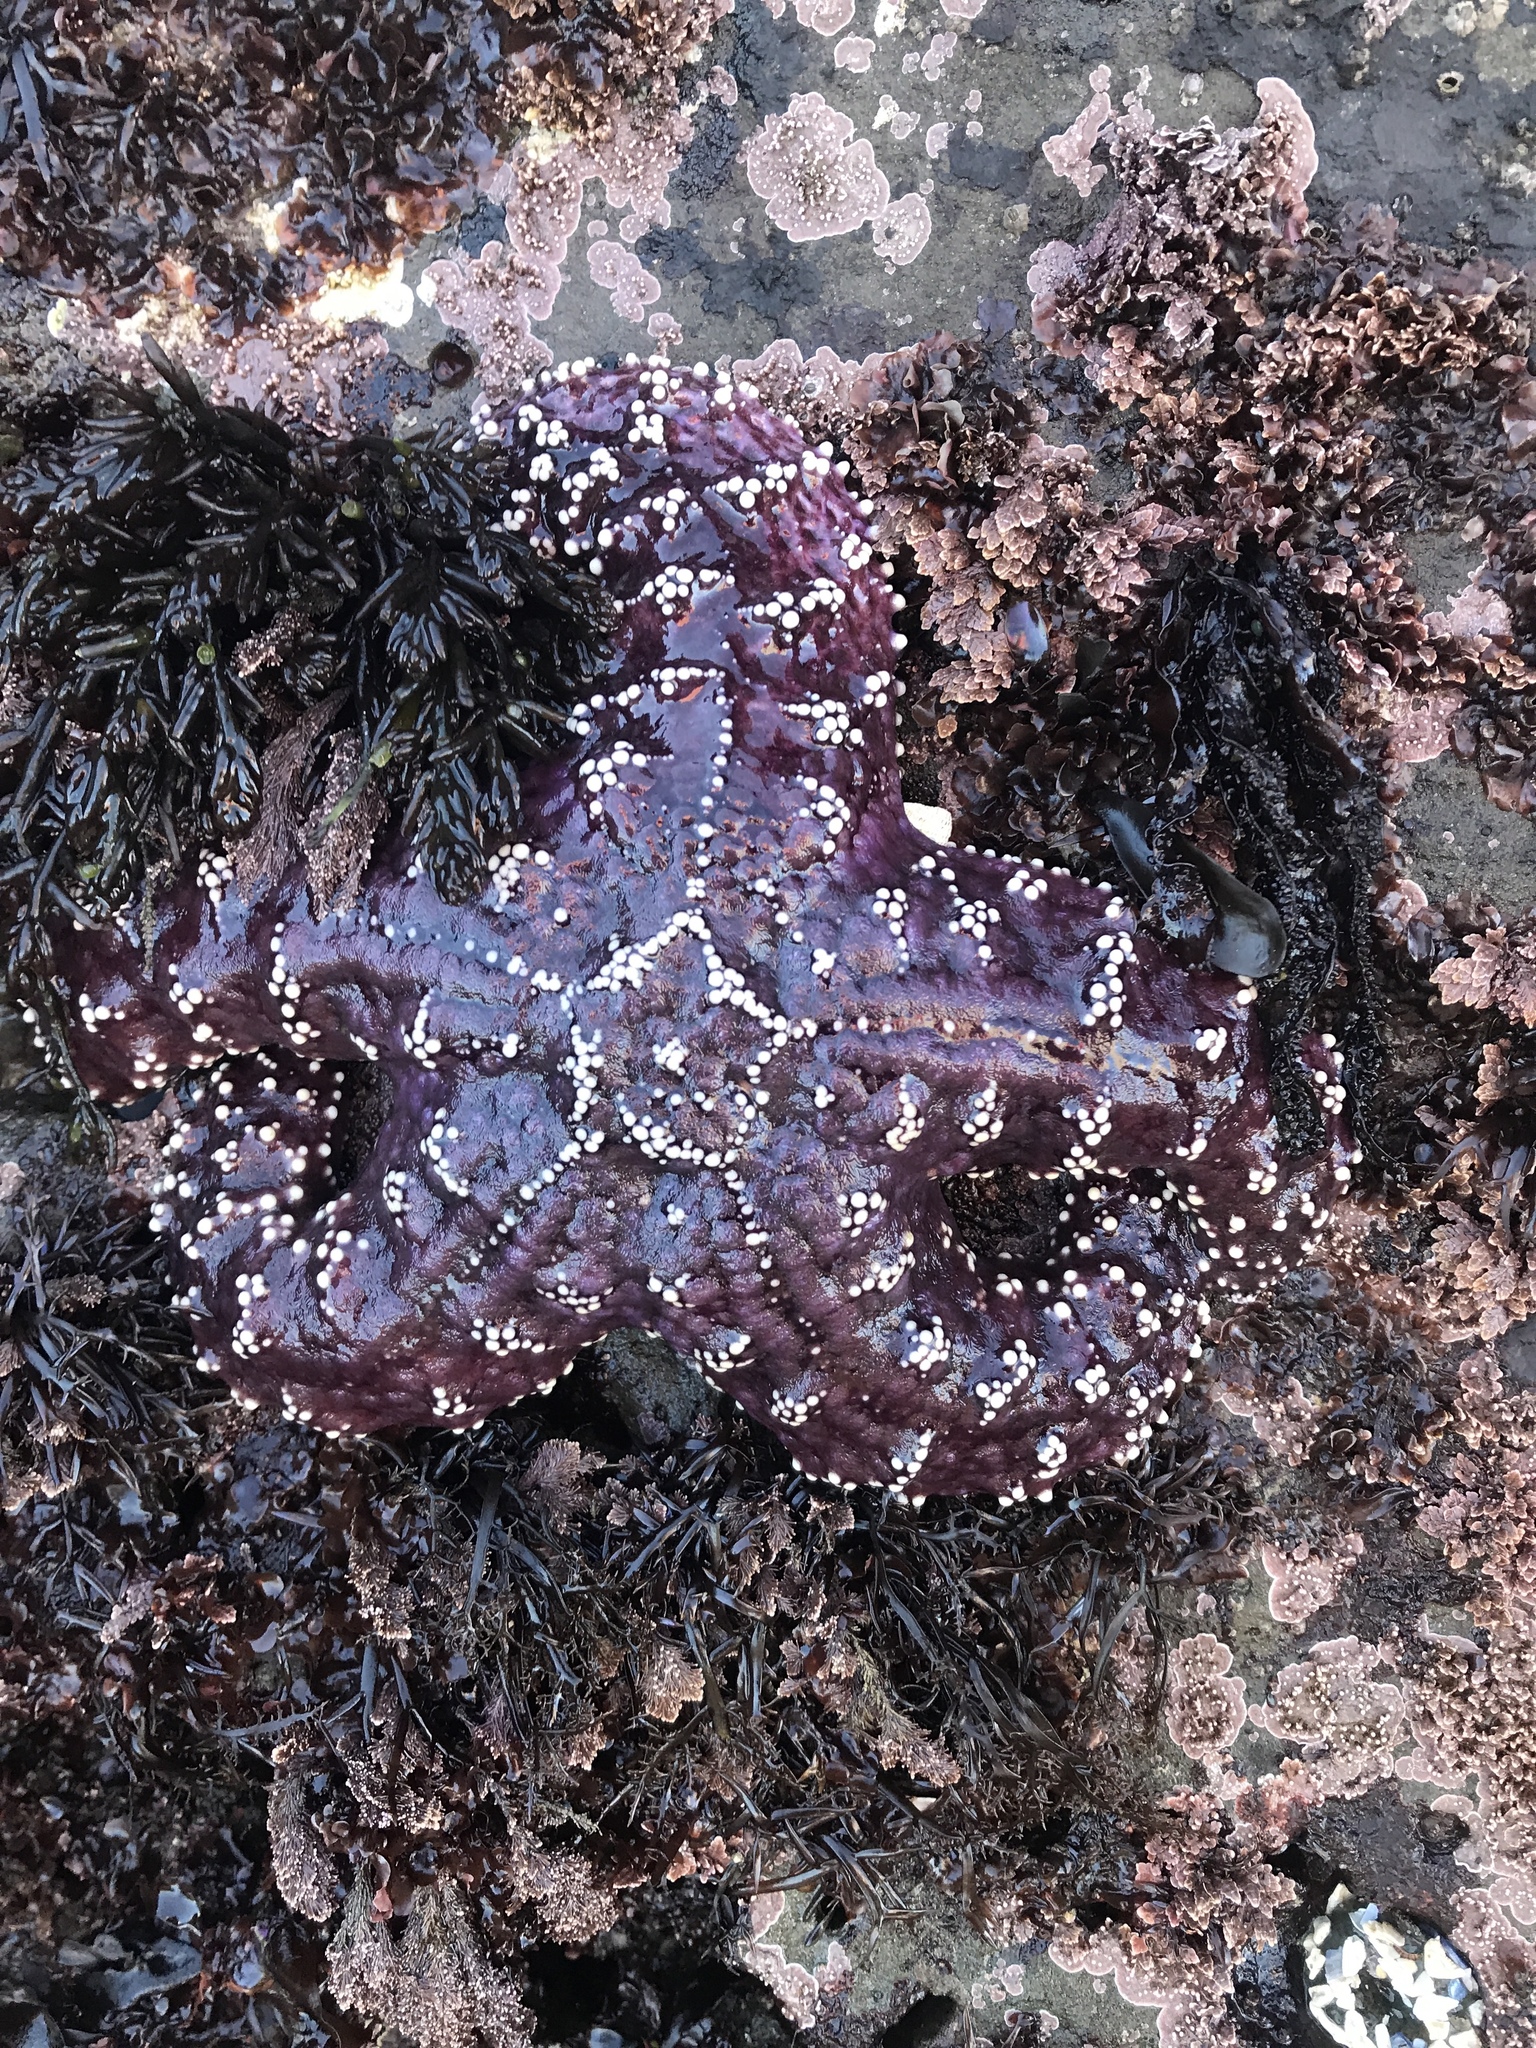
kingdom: Animalia
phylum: Echinodermata
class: Asteroidea
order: Forcipulatida
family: Asteriidae
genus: Pisaster
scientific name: Pisaster ochraceus
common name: Ochre stars
